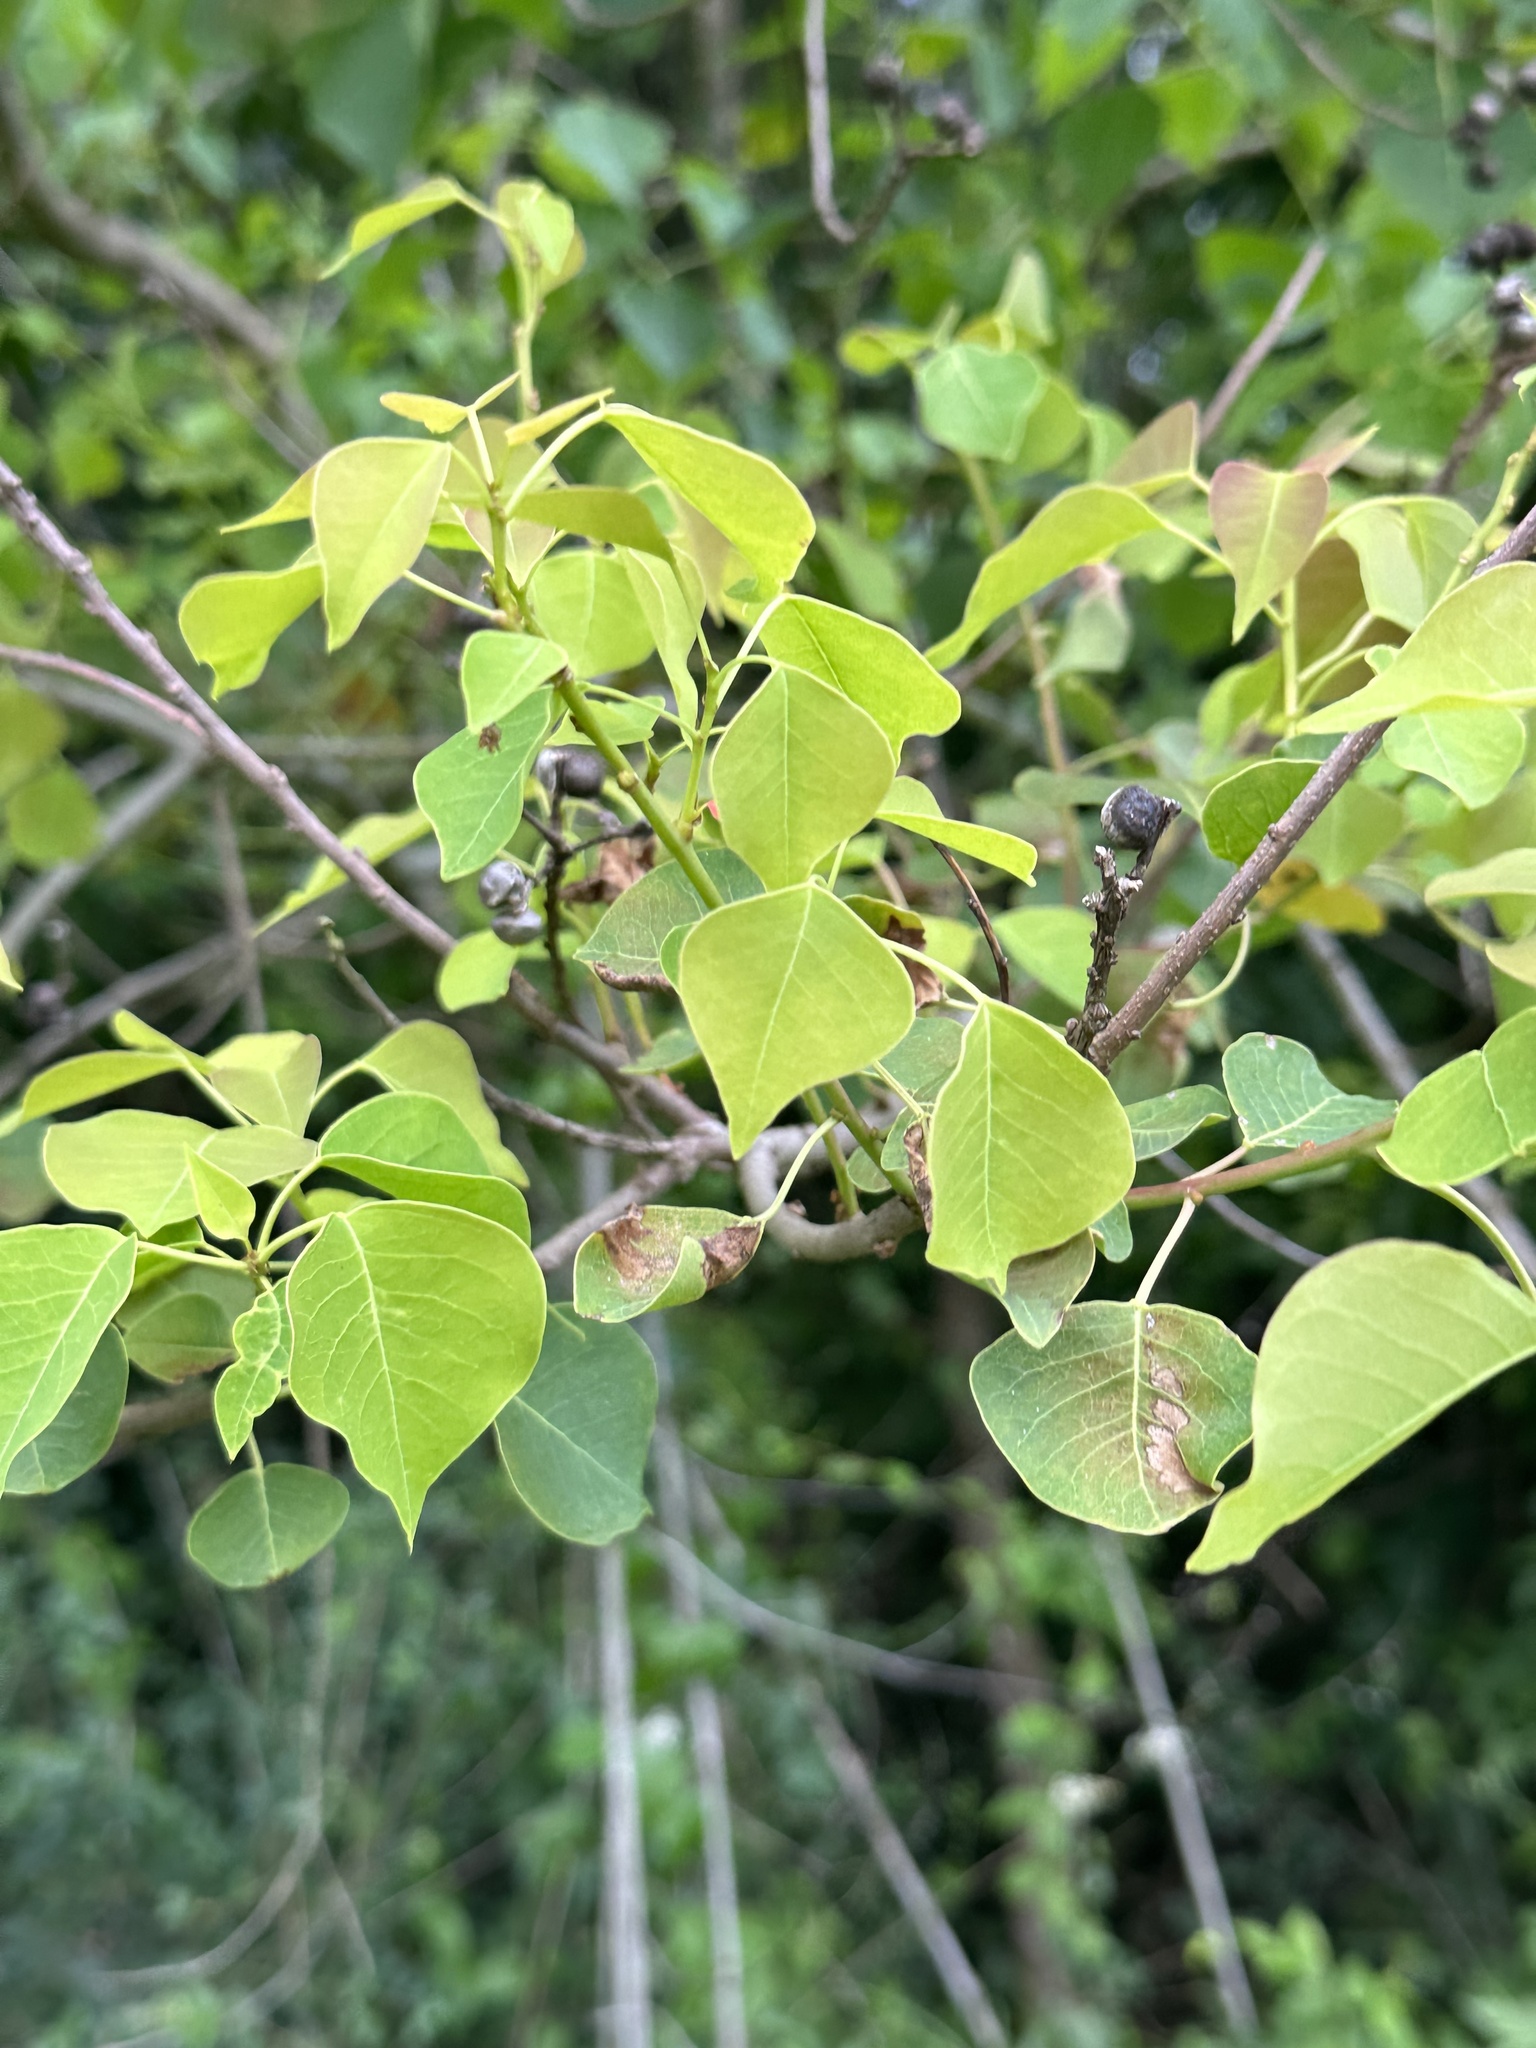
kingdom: Plantae
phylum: Tracheophyta
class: Magnoliopsida
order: Malpighiales
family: Euphorbiaceae
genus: Triadica
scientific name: Triadica sebifera
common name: Chinese tallow
